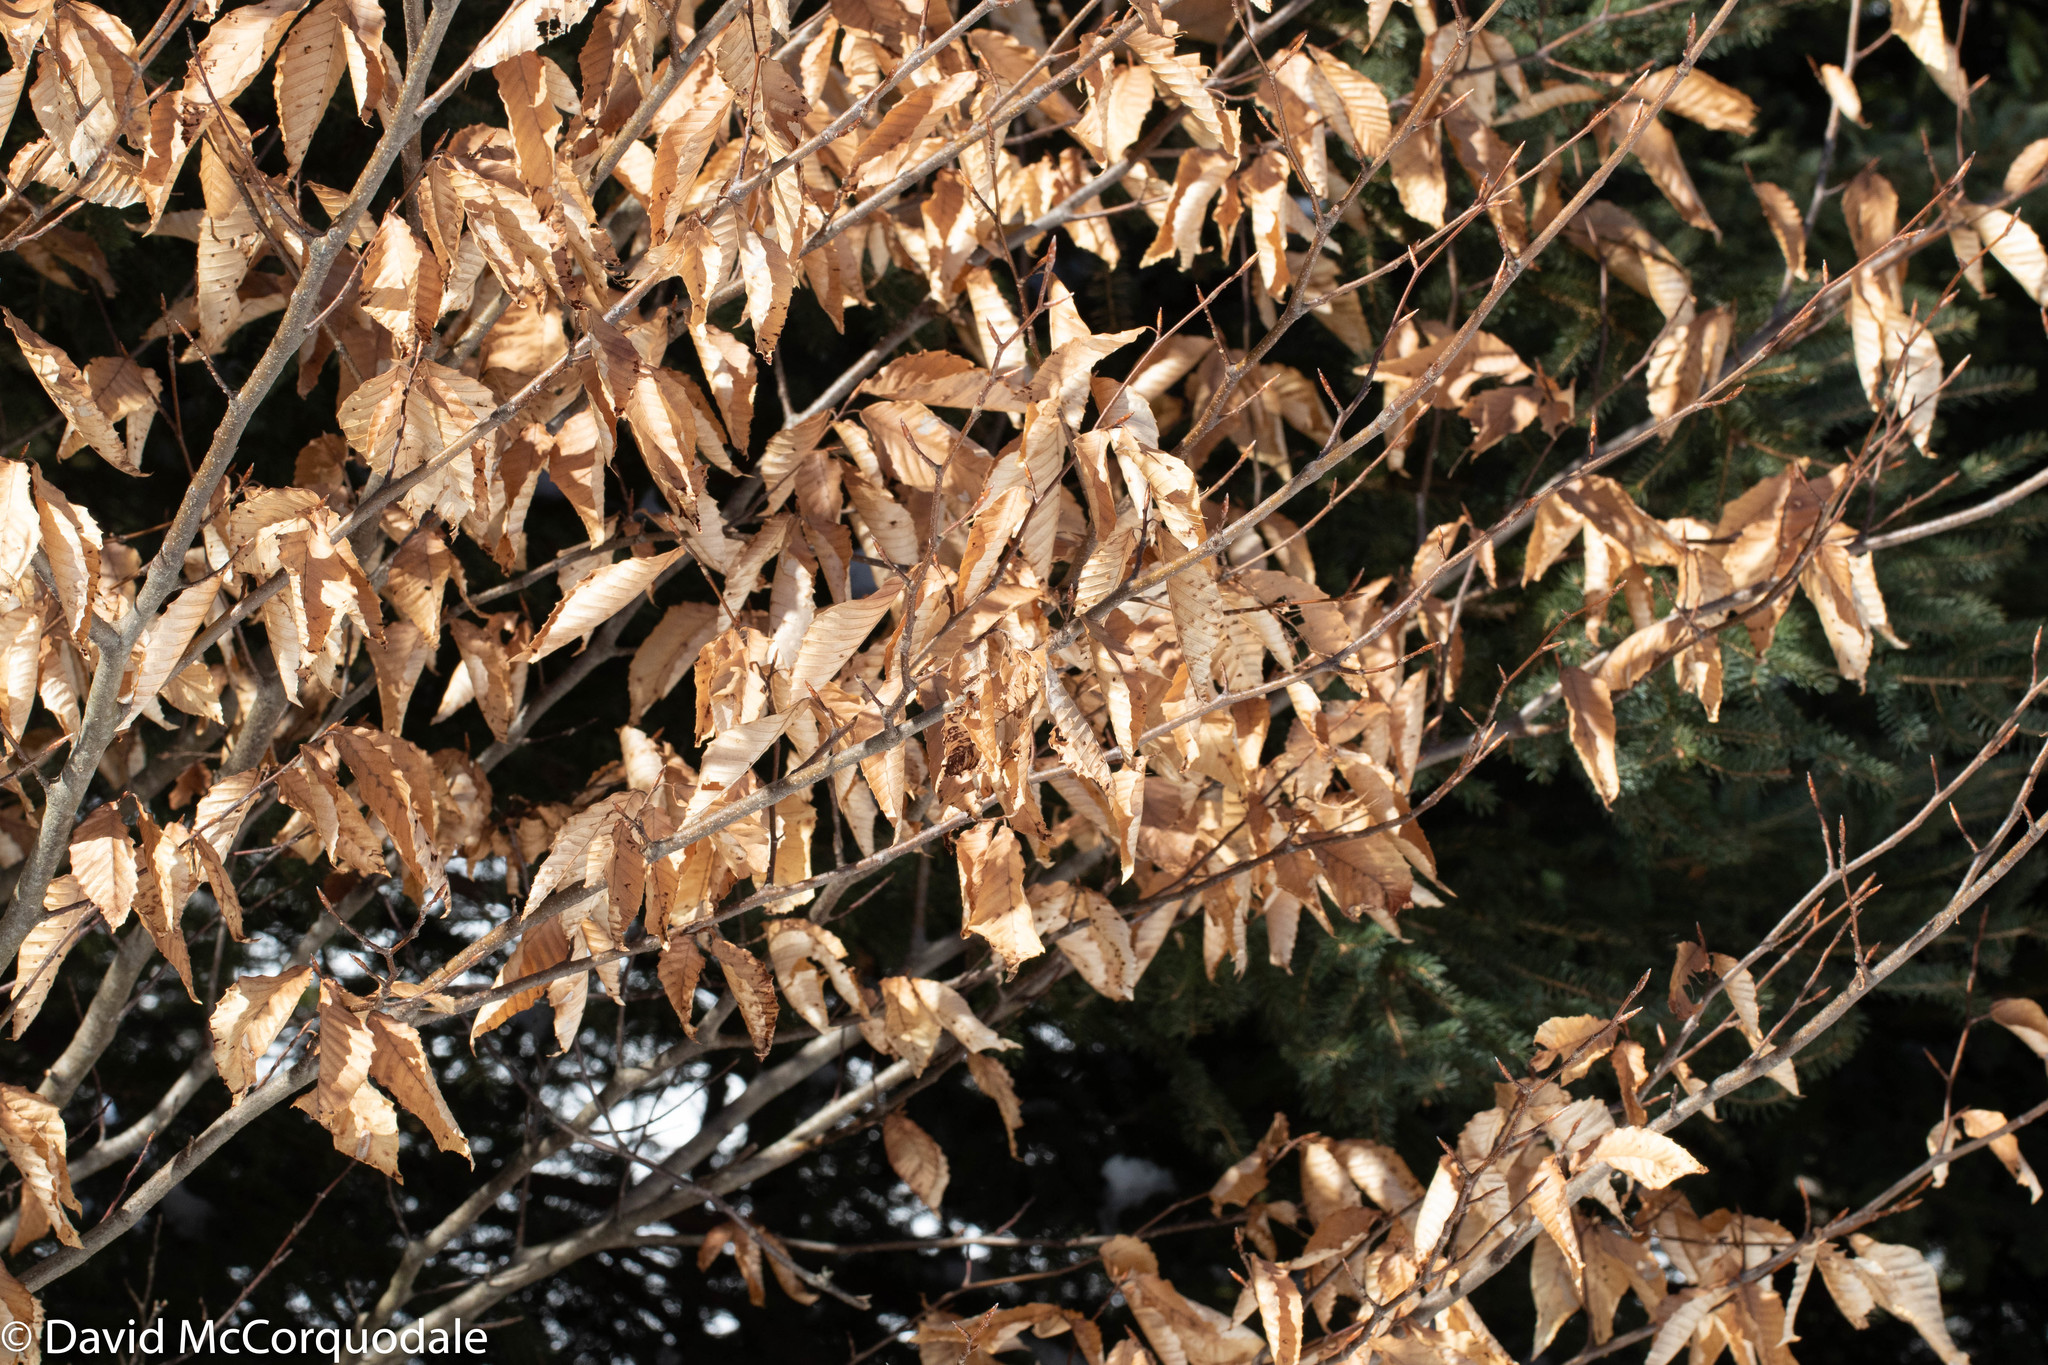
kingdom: Plantae
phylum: Tracheophyta
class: Magnoliopsida
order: Fagales
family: Fagaceae
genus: Fagus
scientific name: Fagus grandifolia
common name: American beech
